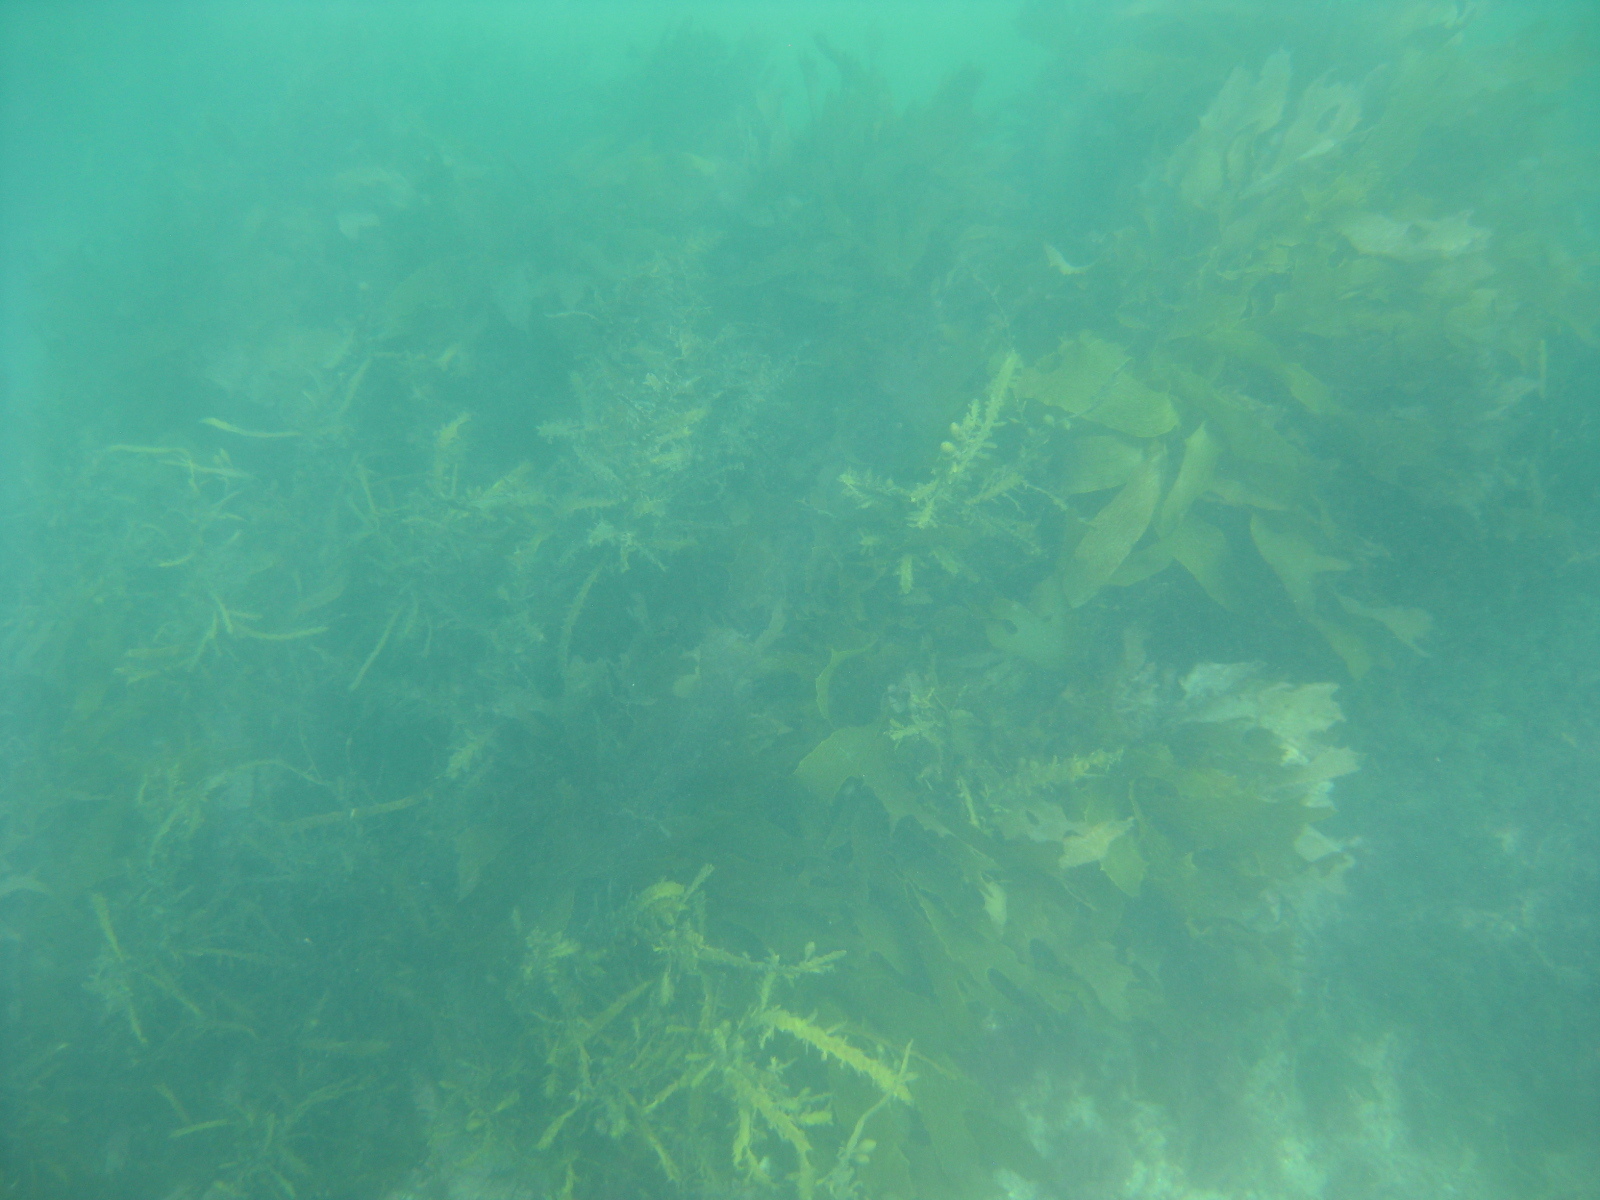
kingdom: Chromista
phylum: Ochrophyta
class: Phaeophyceae
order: Laminariales
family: Lessoniaceae
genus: Ecklonia
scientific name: Ecklonia radiata
